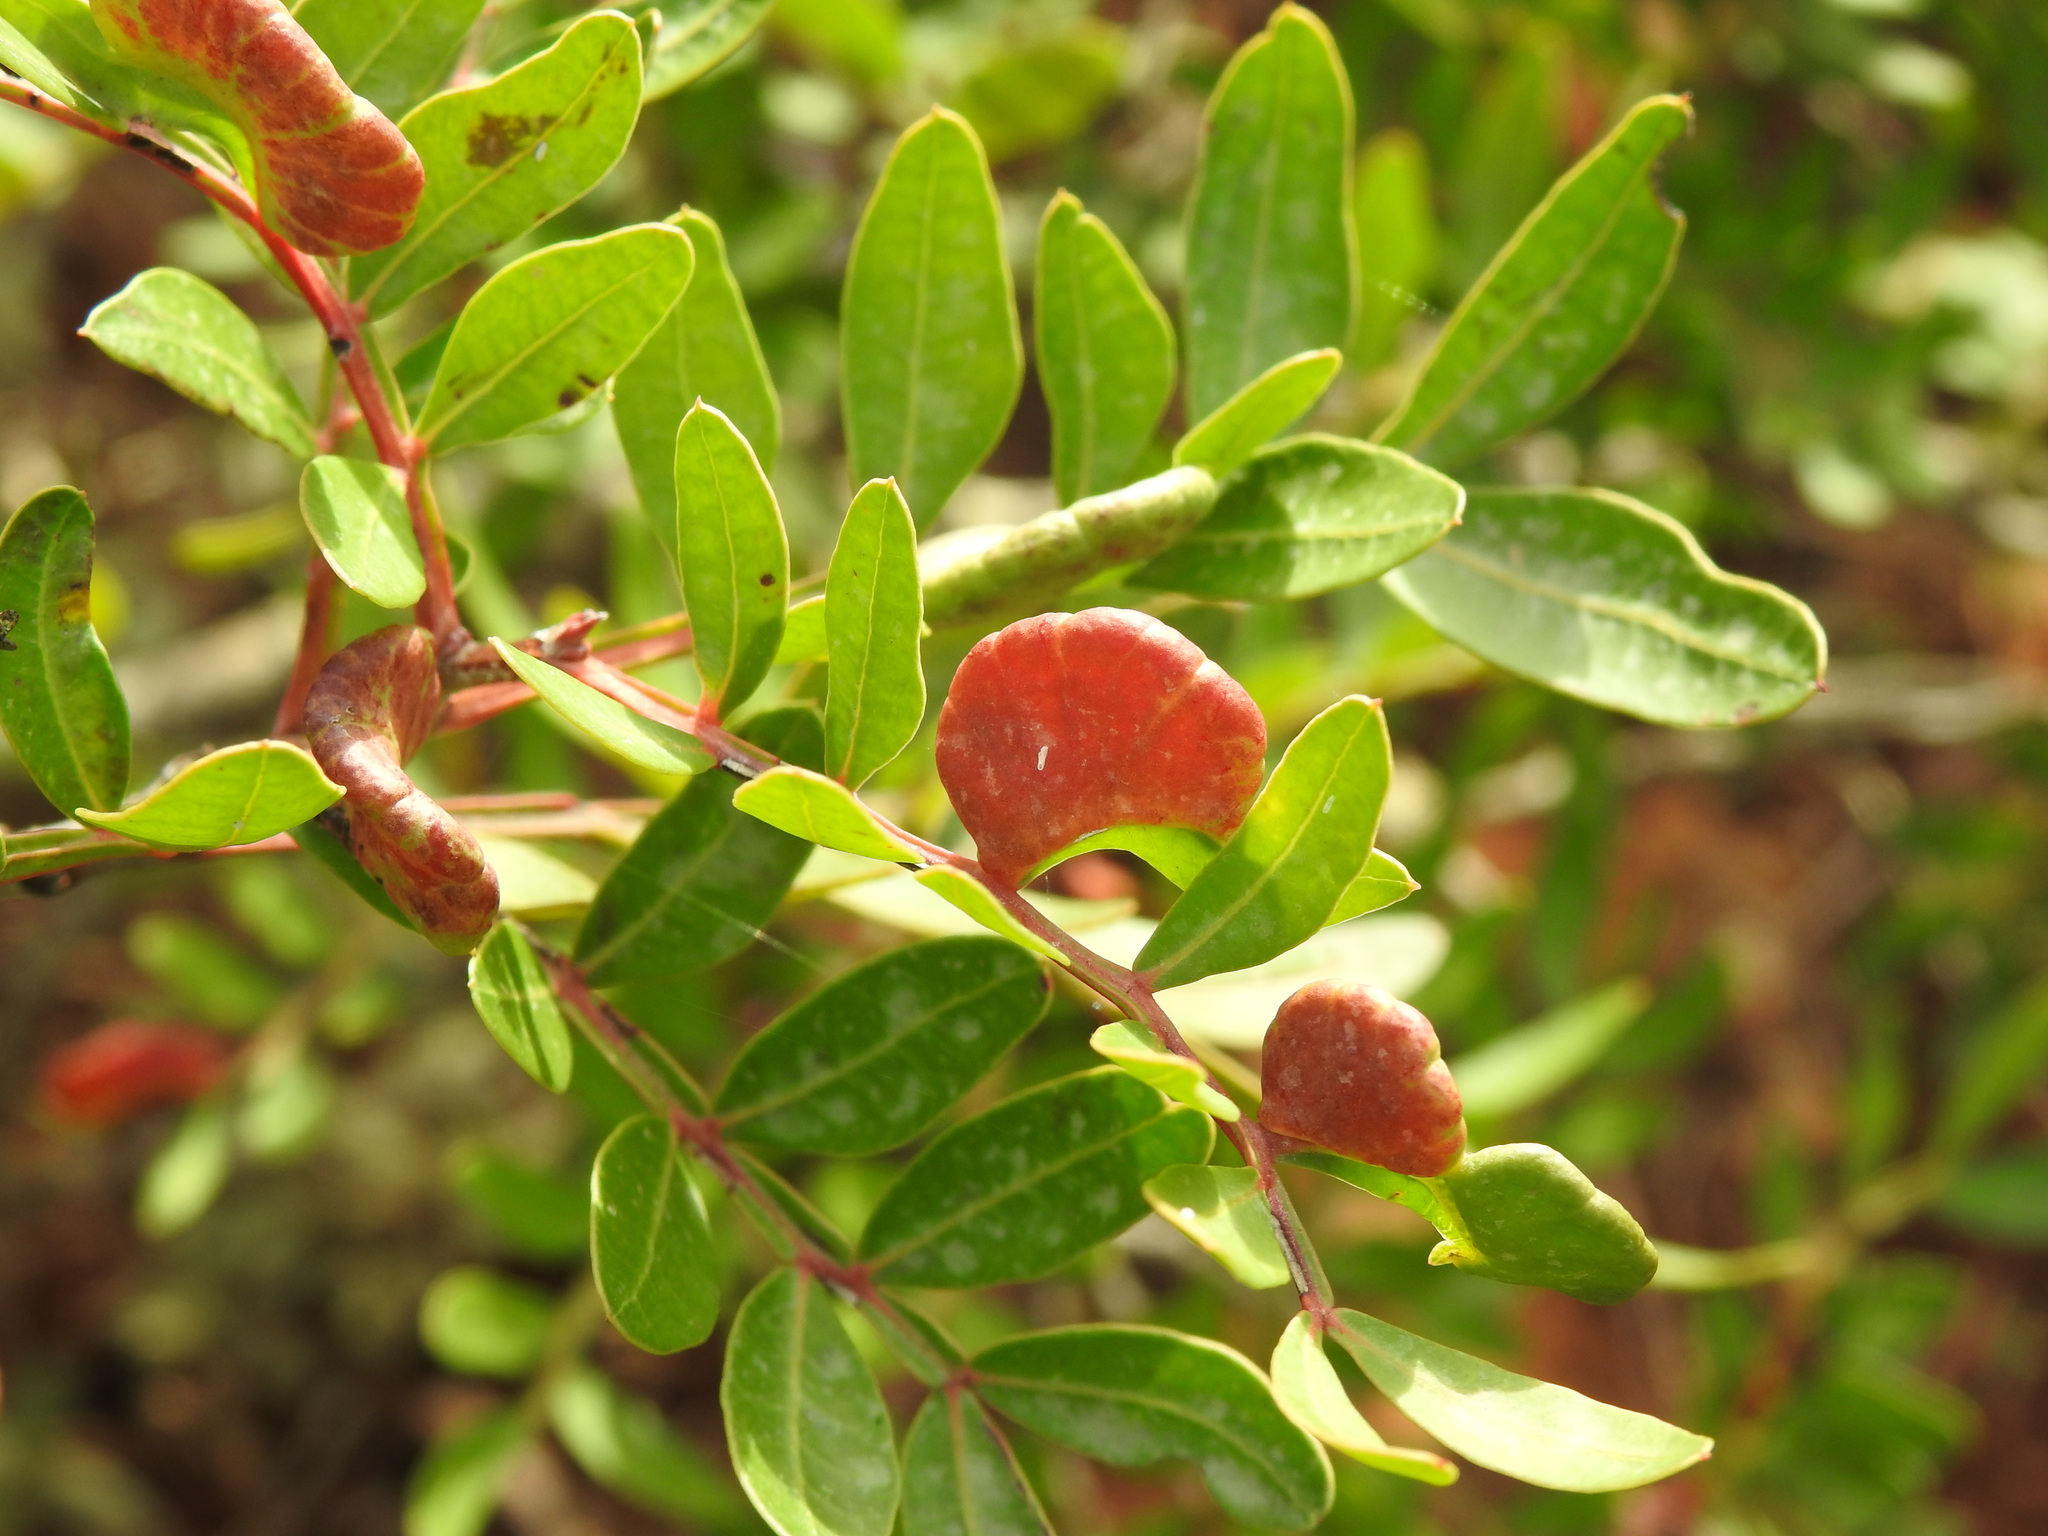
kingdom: Animalia
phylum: Arthropoda
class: Insecta
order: Hemiptera
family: Aphididae
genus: Aploneura
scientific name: Aploneura lentisci
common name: Mealy grass root aphid
